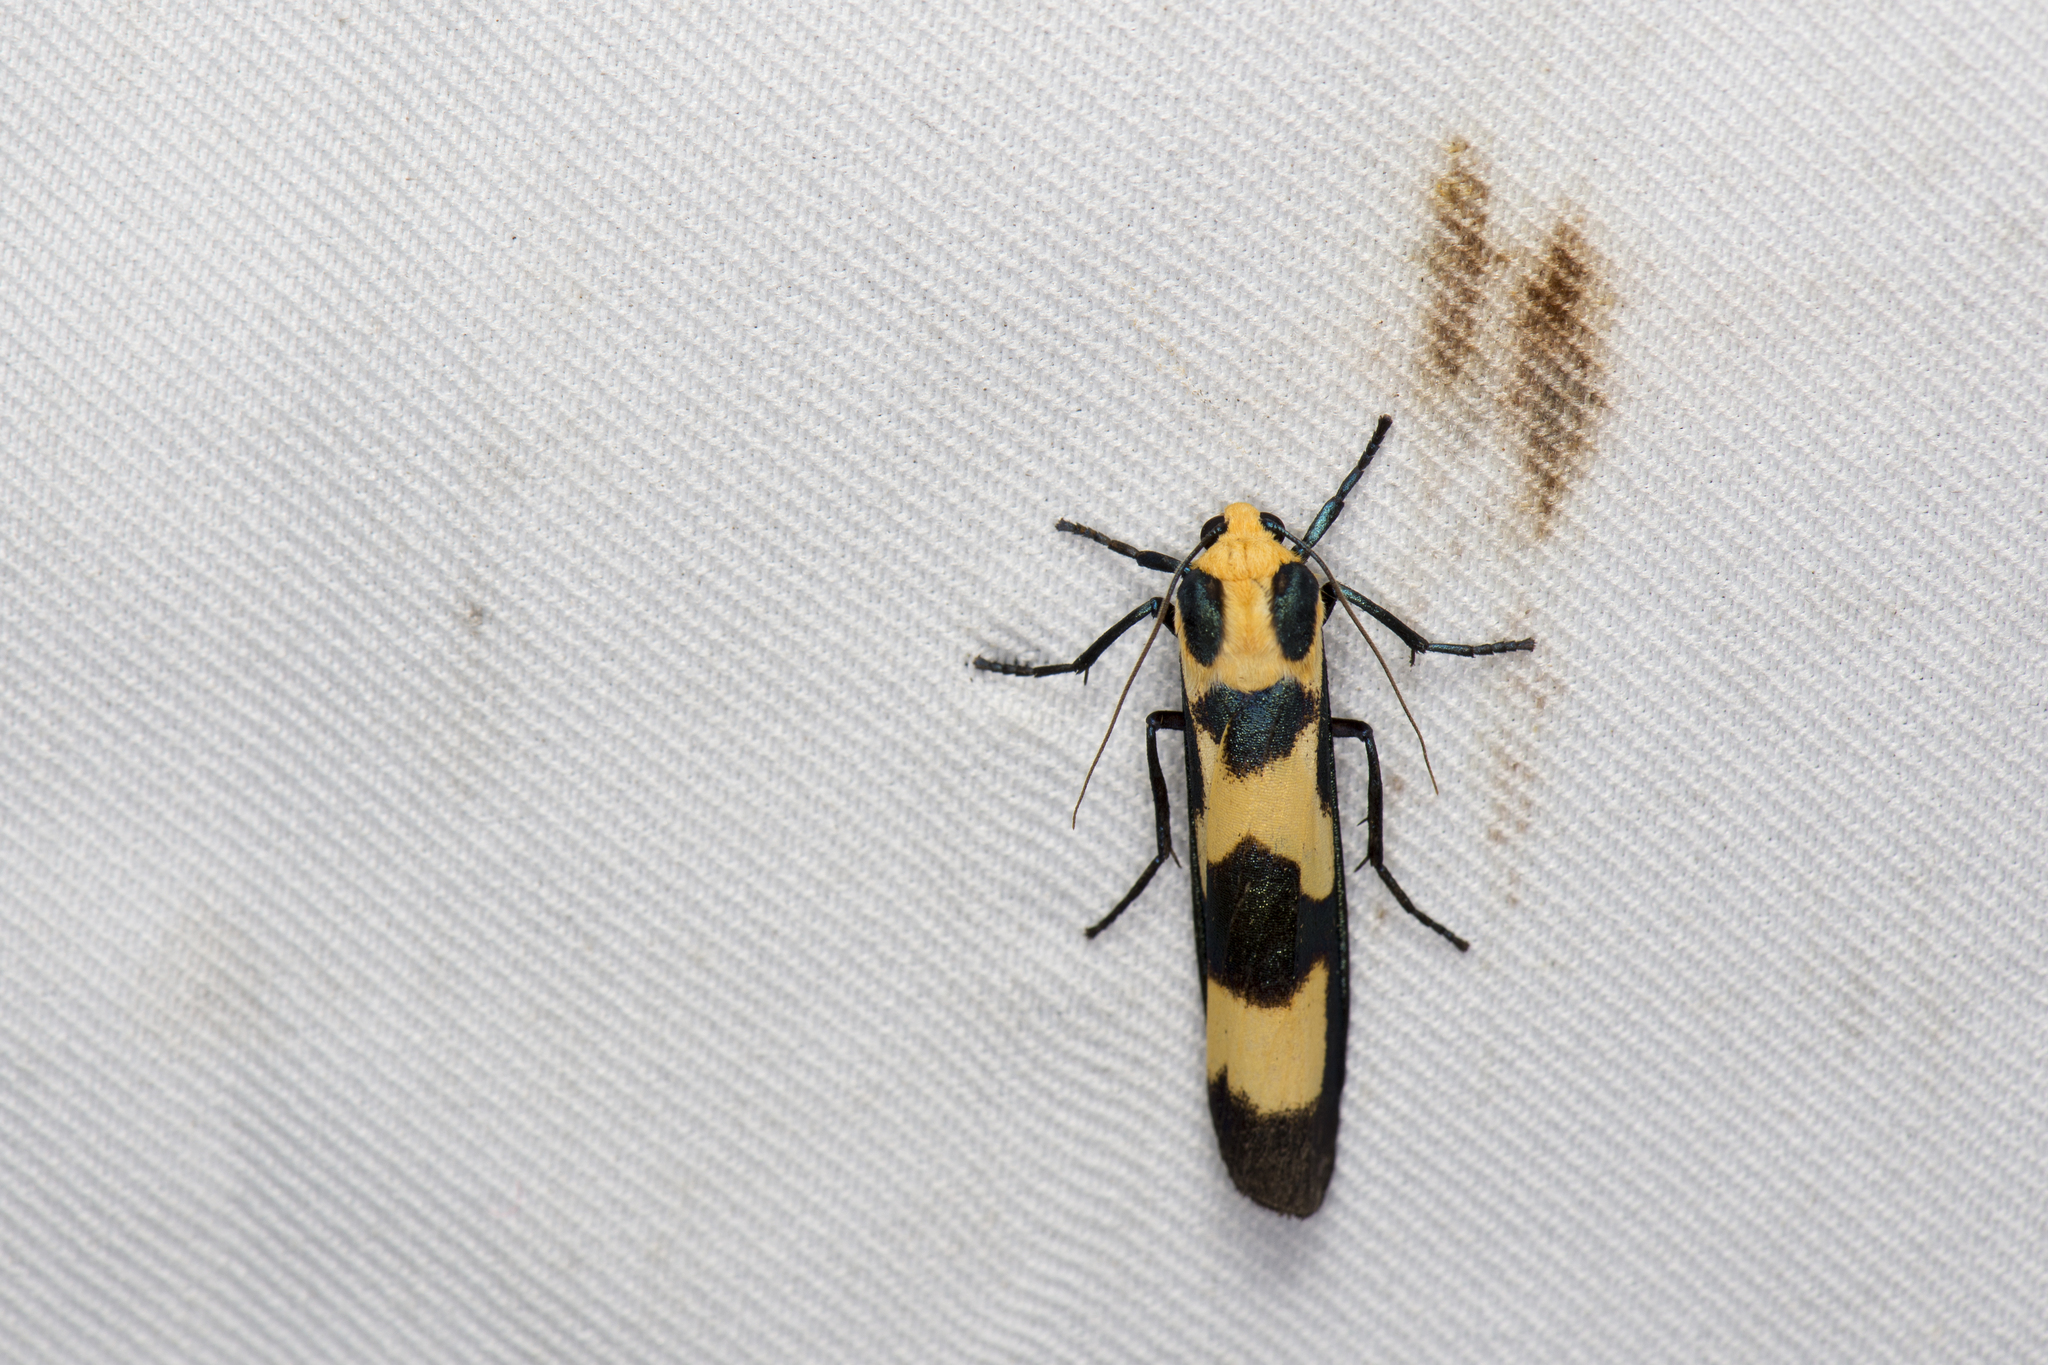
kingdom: Animalia
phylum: Arthropoda
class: Insecta
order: Lepidoptera
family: Erebidae
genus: Chrysaeglia
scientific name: Chrysaeglia magnifica
